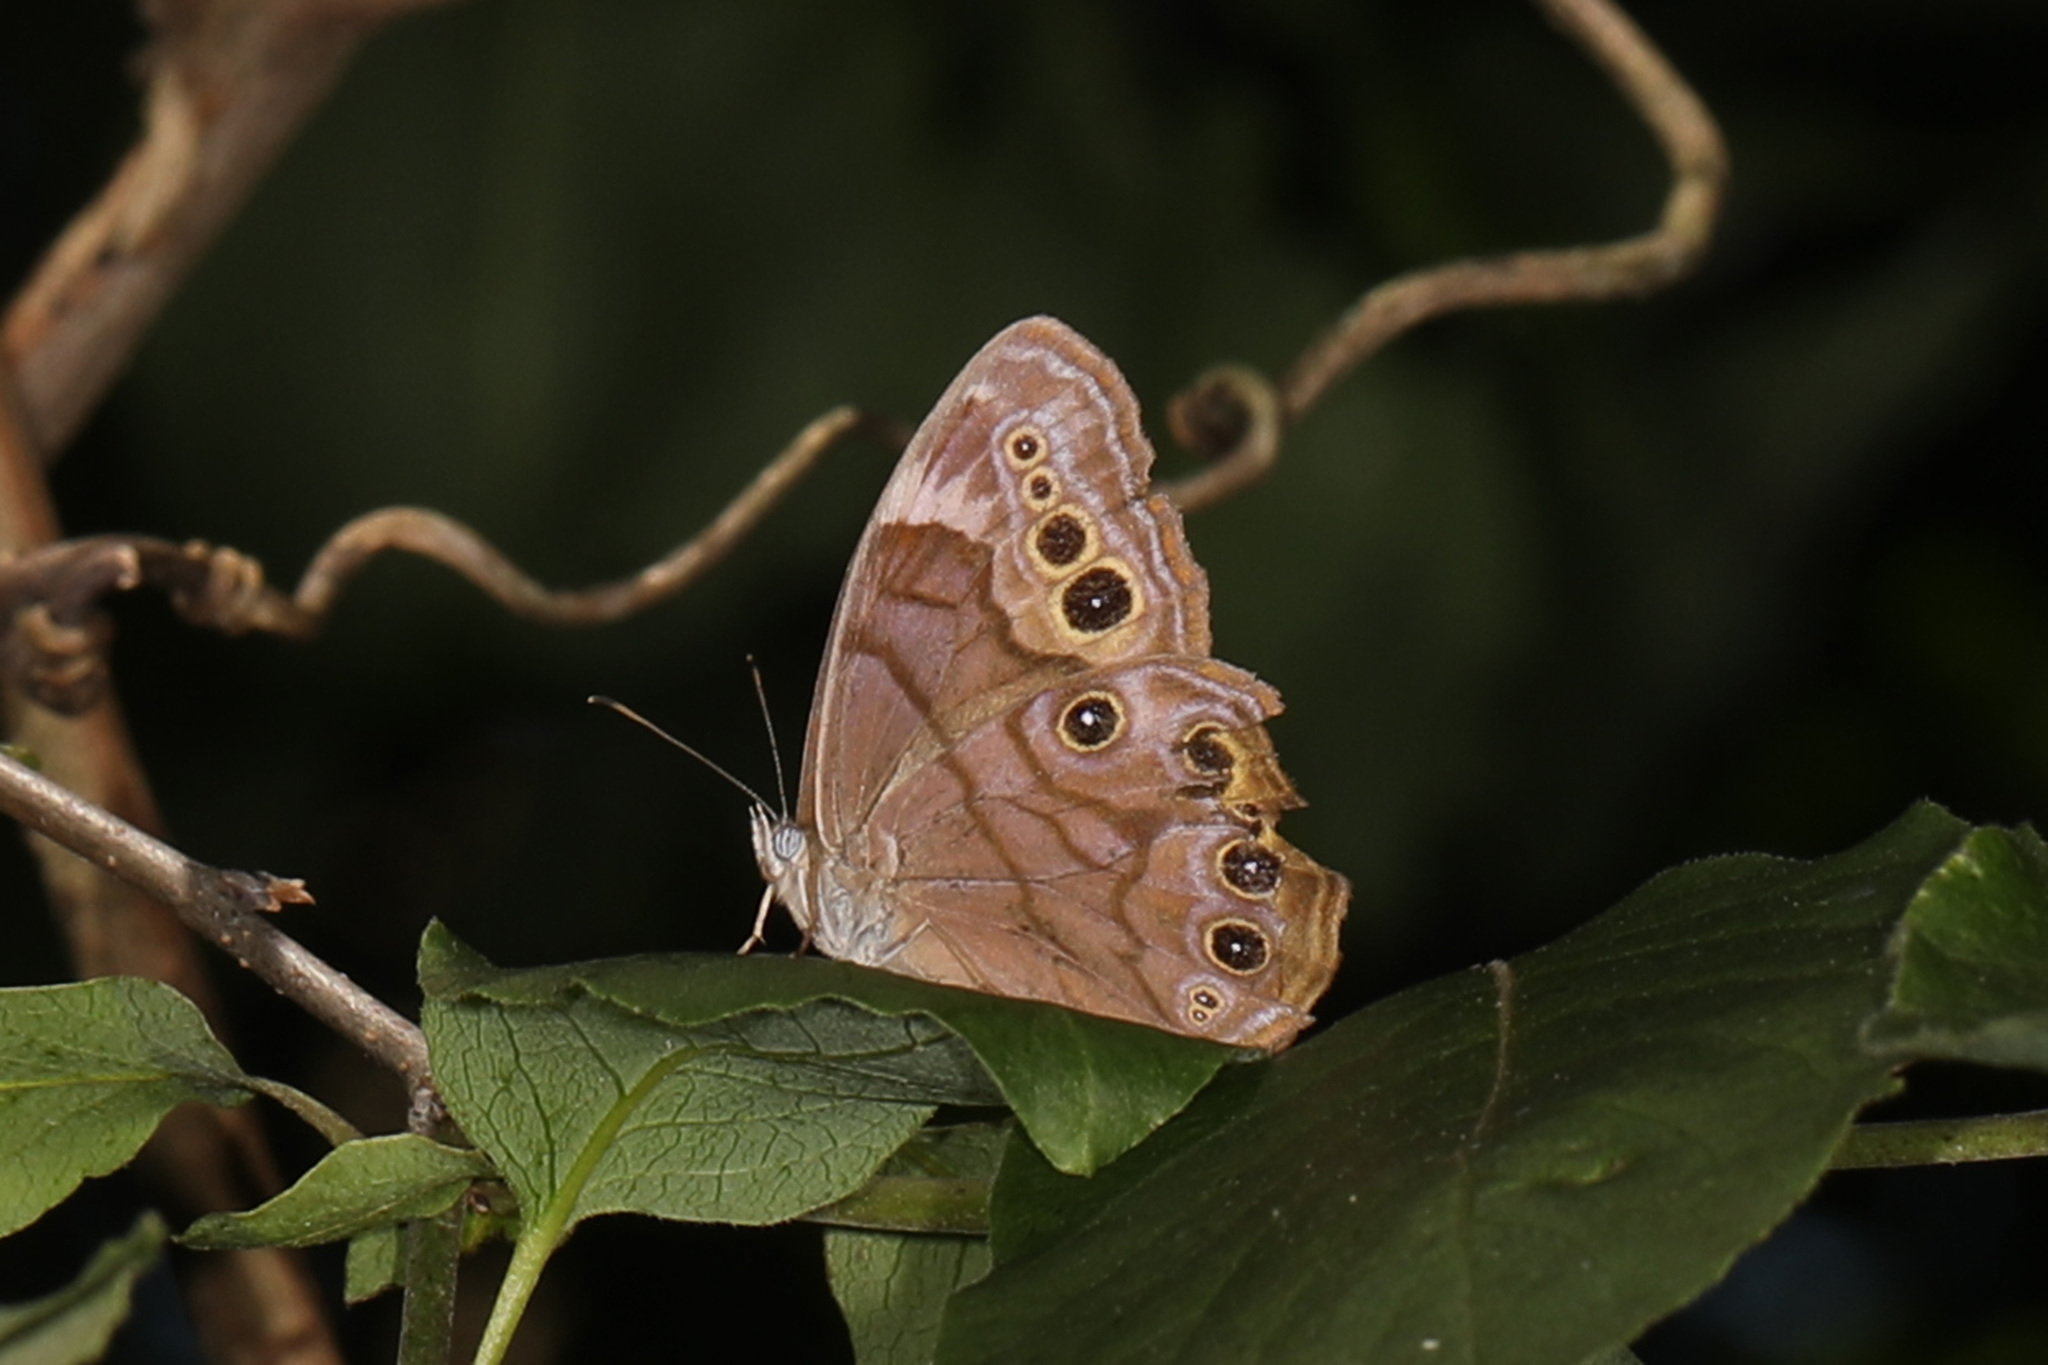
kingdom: Animalia
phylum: Arthropoda
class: Insecta
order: Lepidoptera
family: Nymphalidae
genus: Lethe
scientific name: Lethe anthedon
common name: Northern pearly-eye
